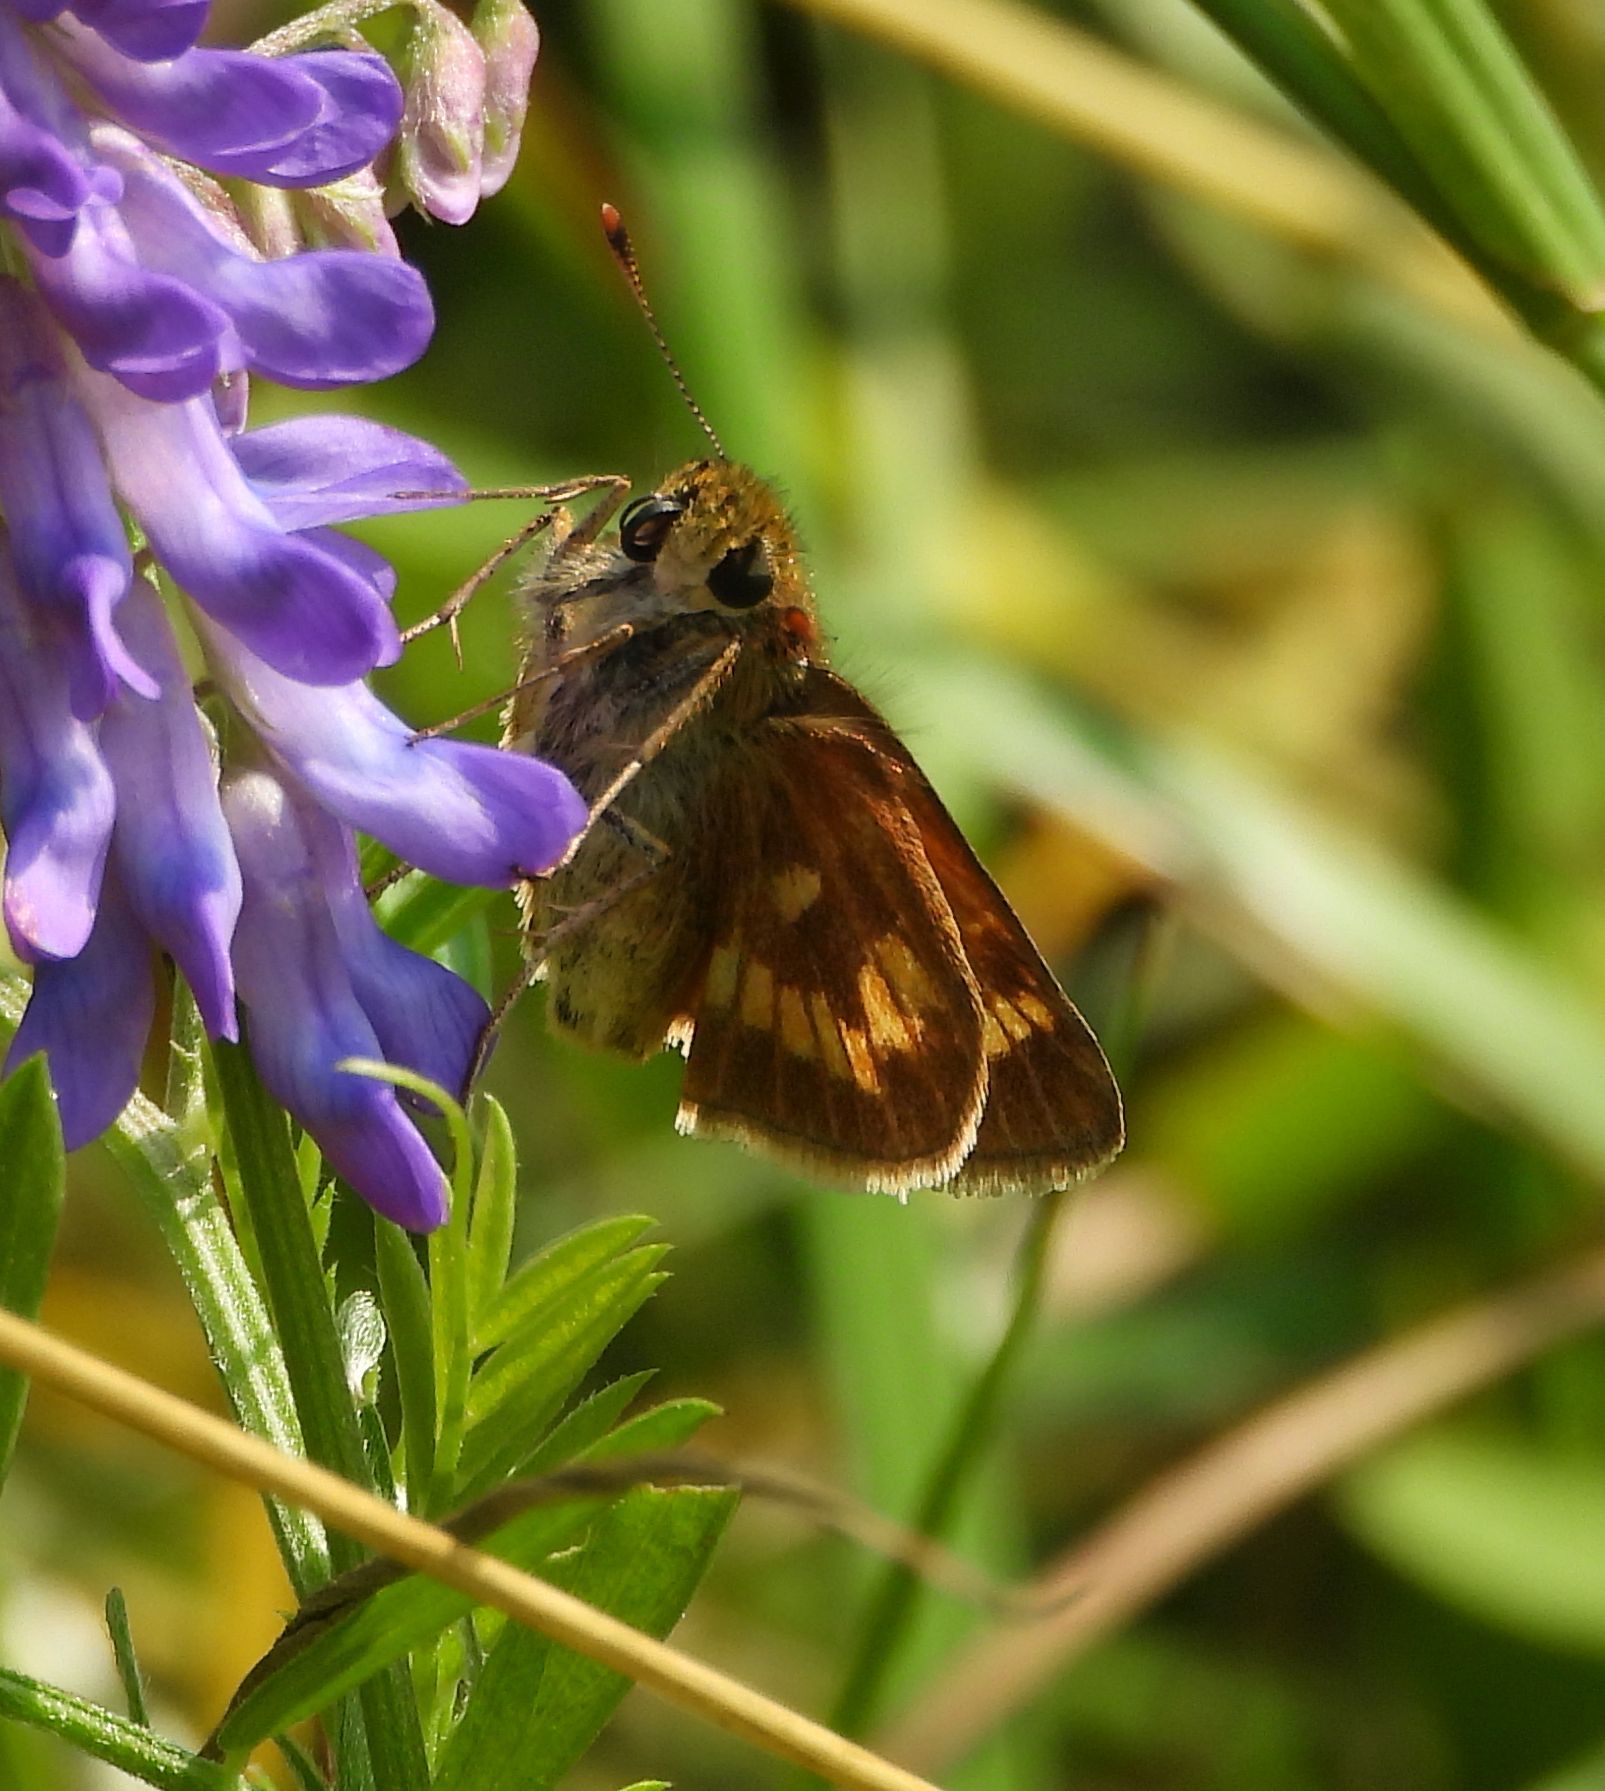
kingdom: Animalia
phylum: Arthropoda
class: Insecta
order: Lepidoptera
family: Hesperiidae
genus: Polites
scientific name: Polites mystic
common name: Long dash
